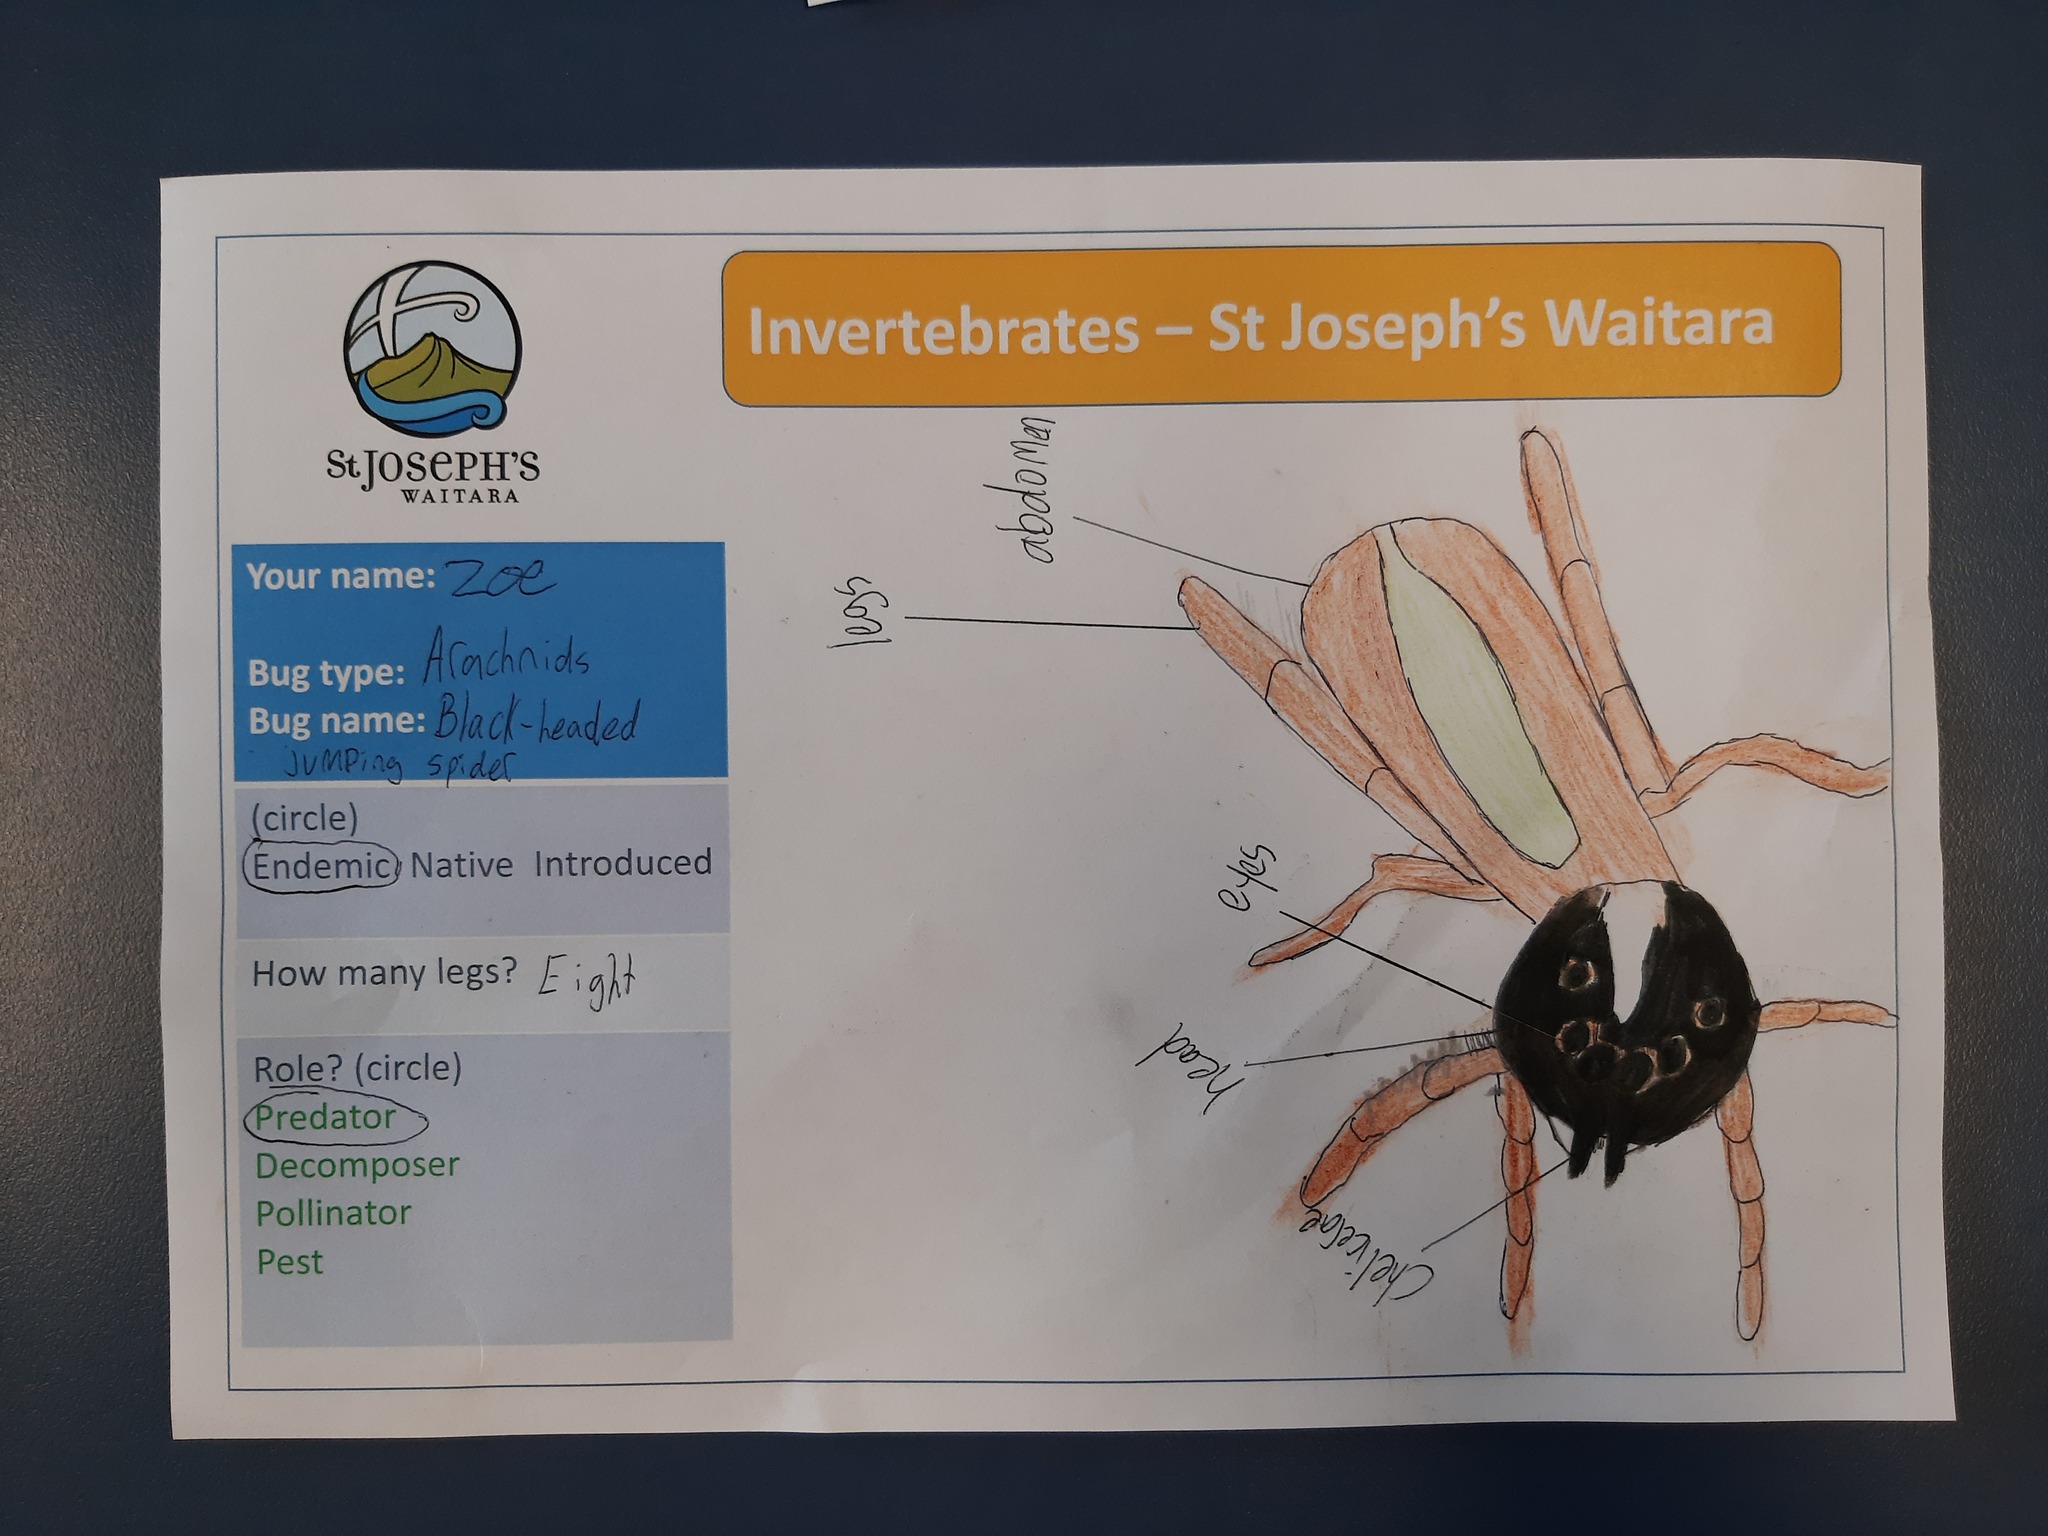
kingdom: Animalia
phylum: Arthropoda
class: Arachnida
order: Araneae
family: Salticidae
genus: Trite
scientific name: Trite planiceps
